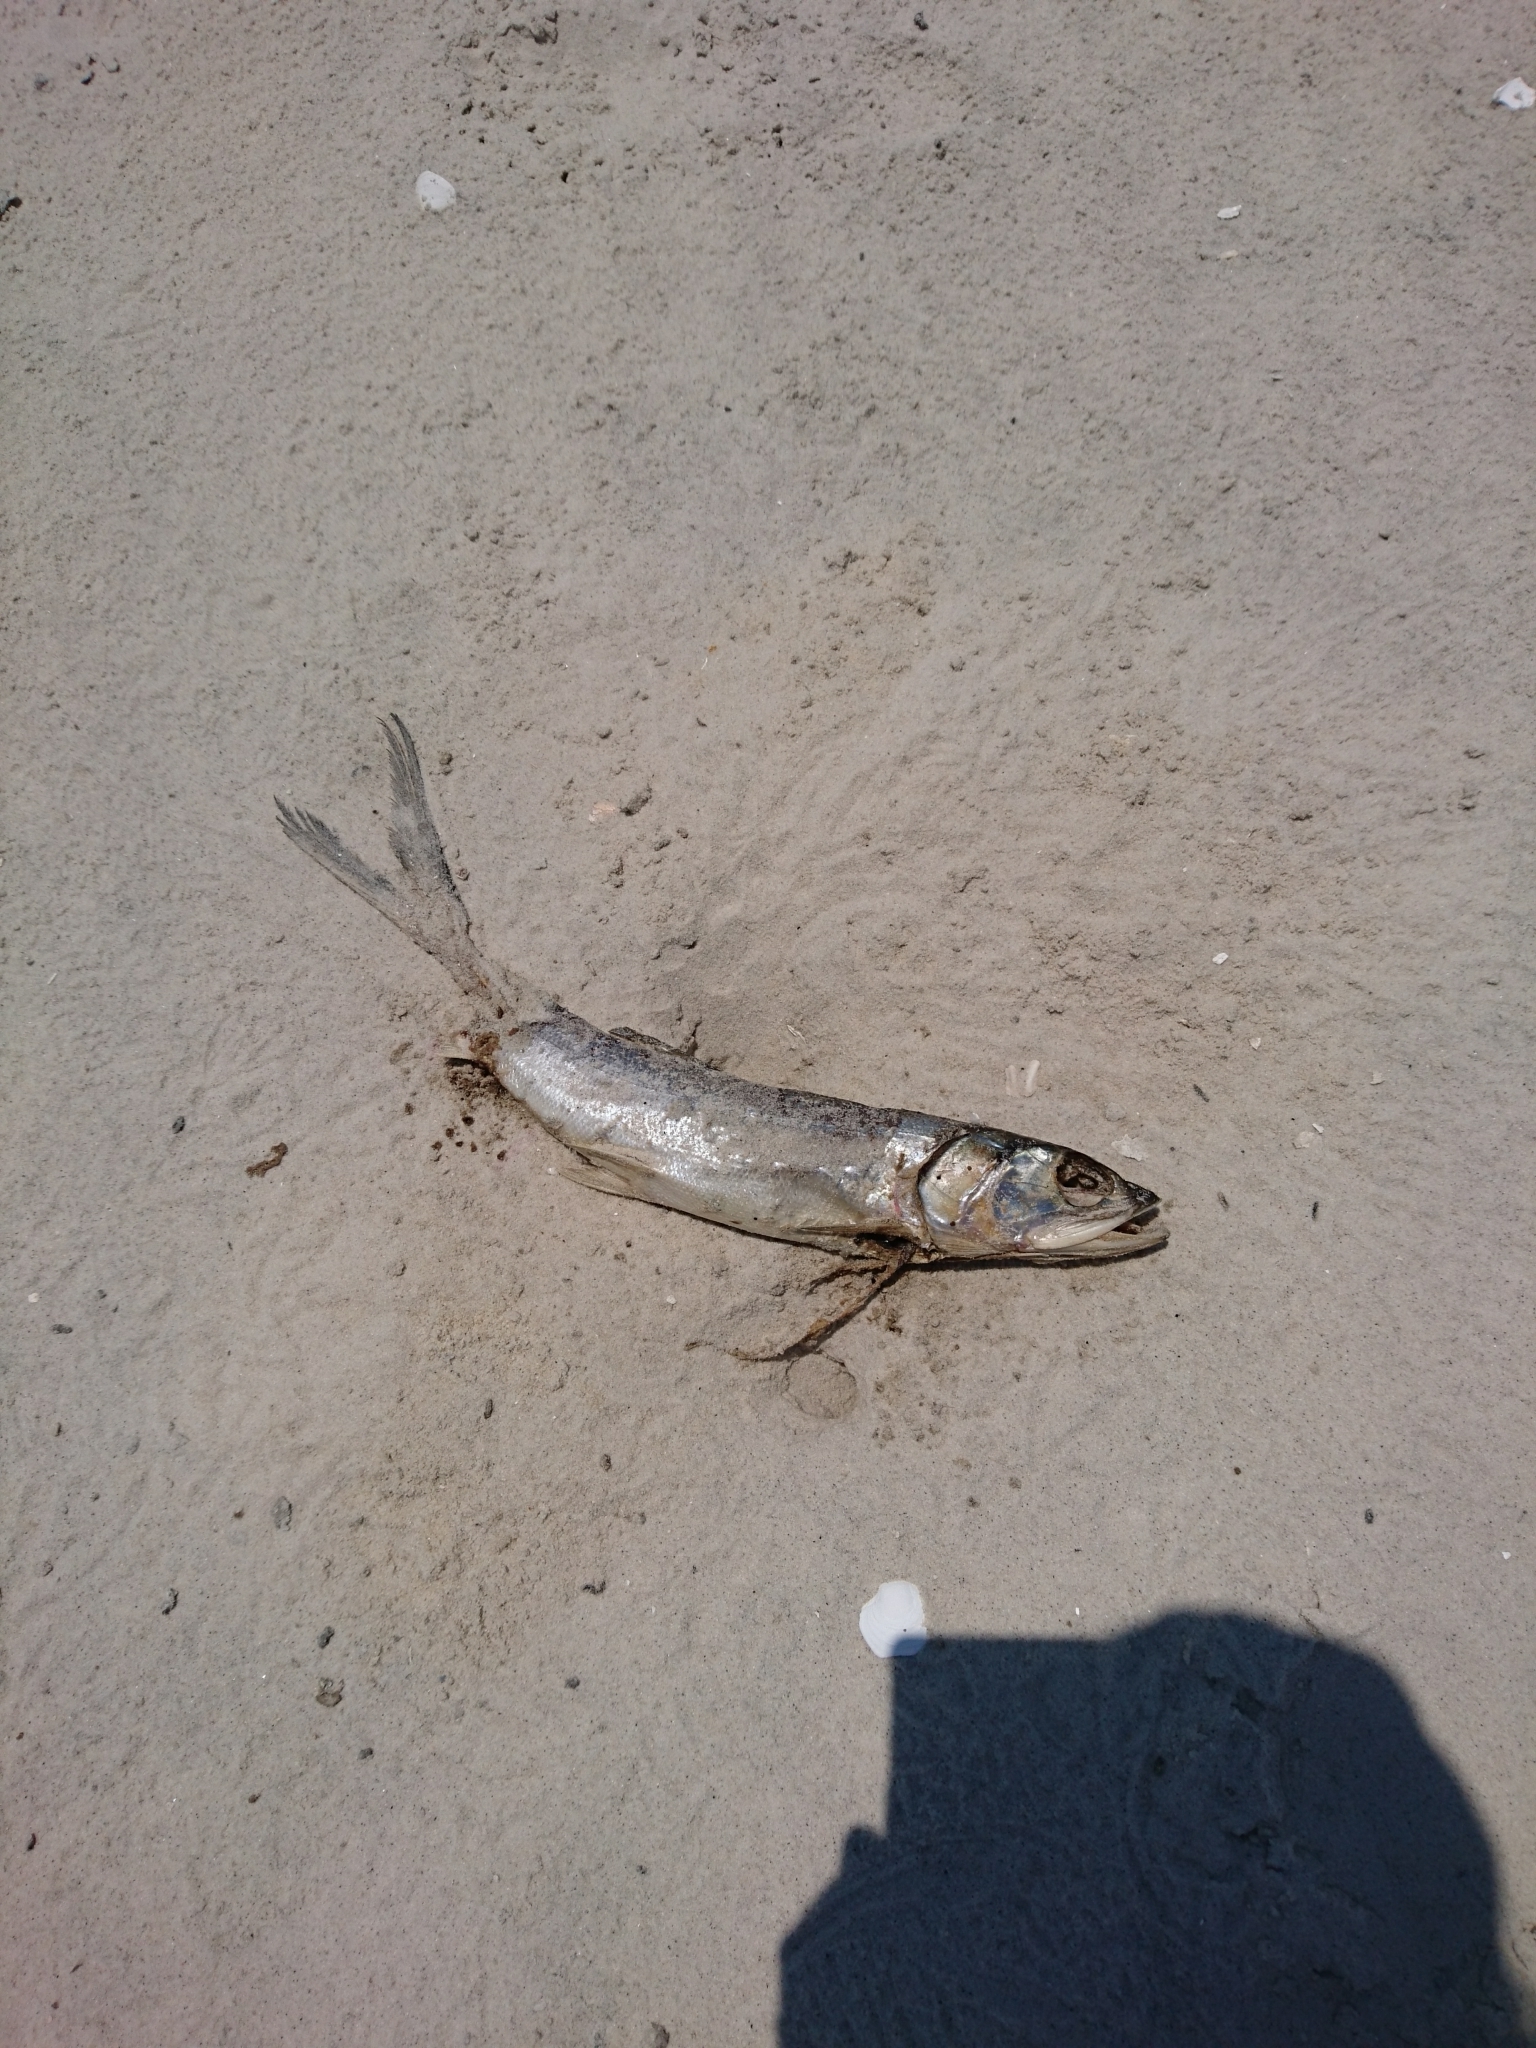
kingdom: Animalia
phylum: Chordata
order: Elopiformes
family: Elopidae
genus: Elops
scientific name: Elops saurus
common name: Ladyfish
